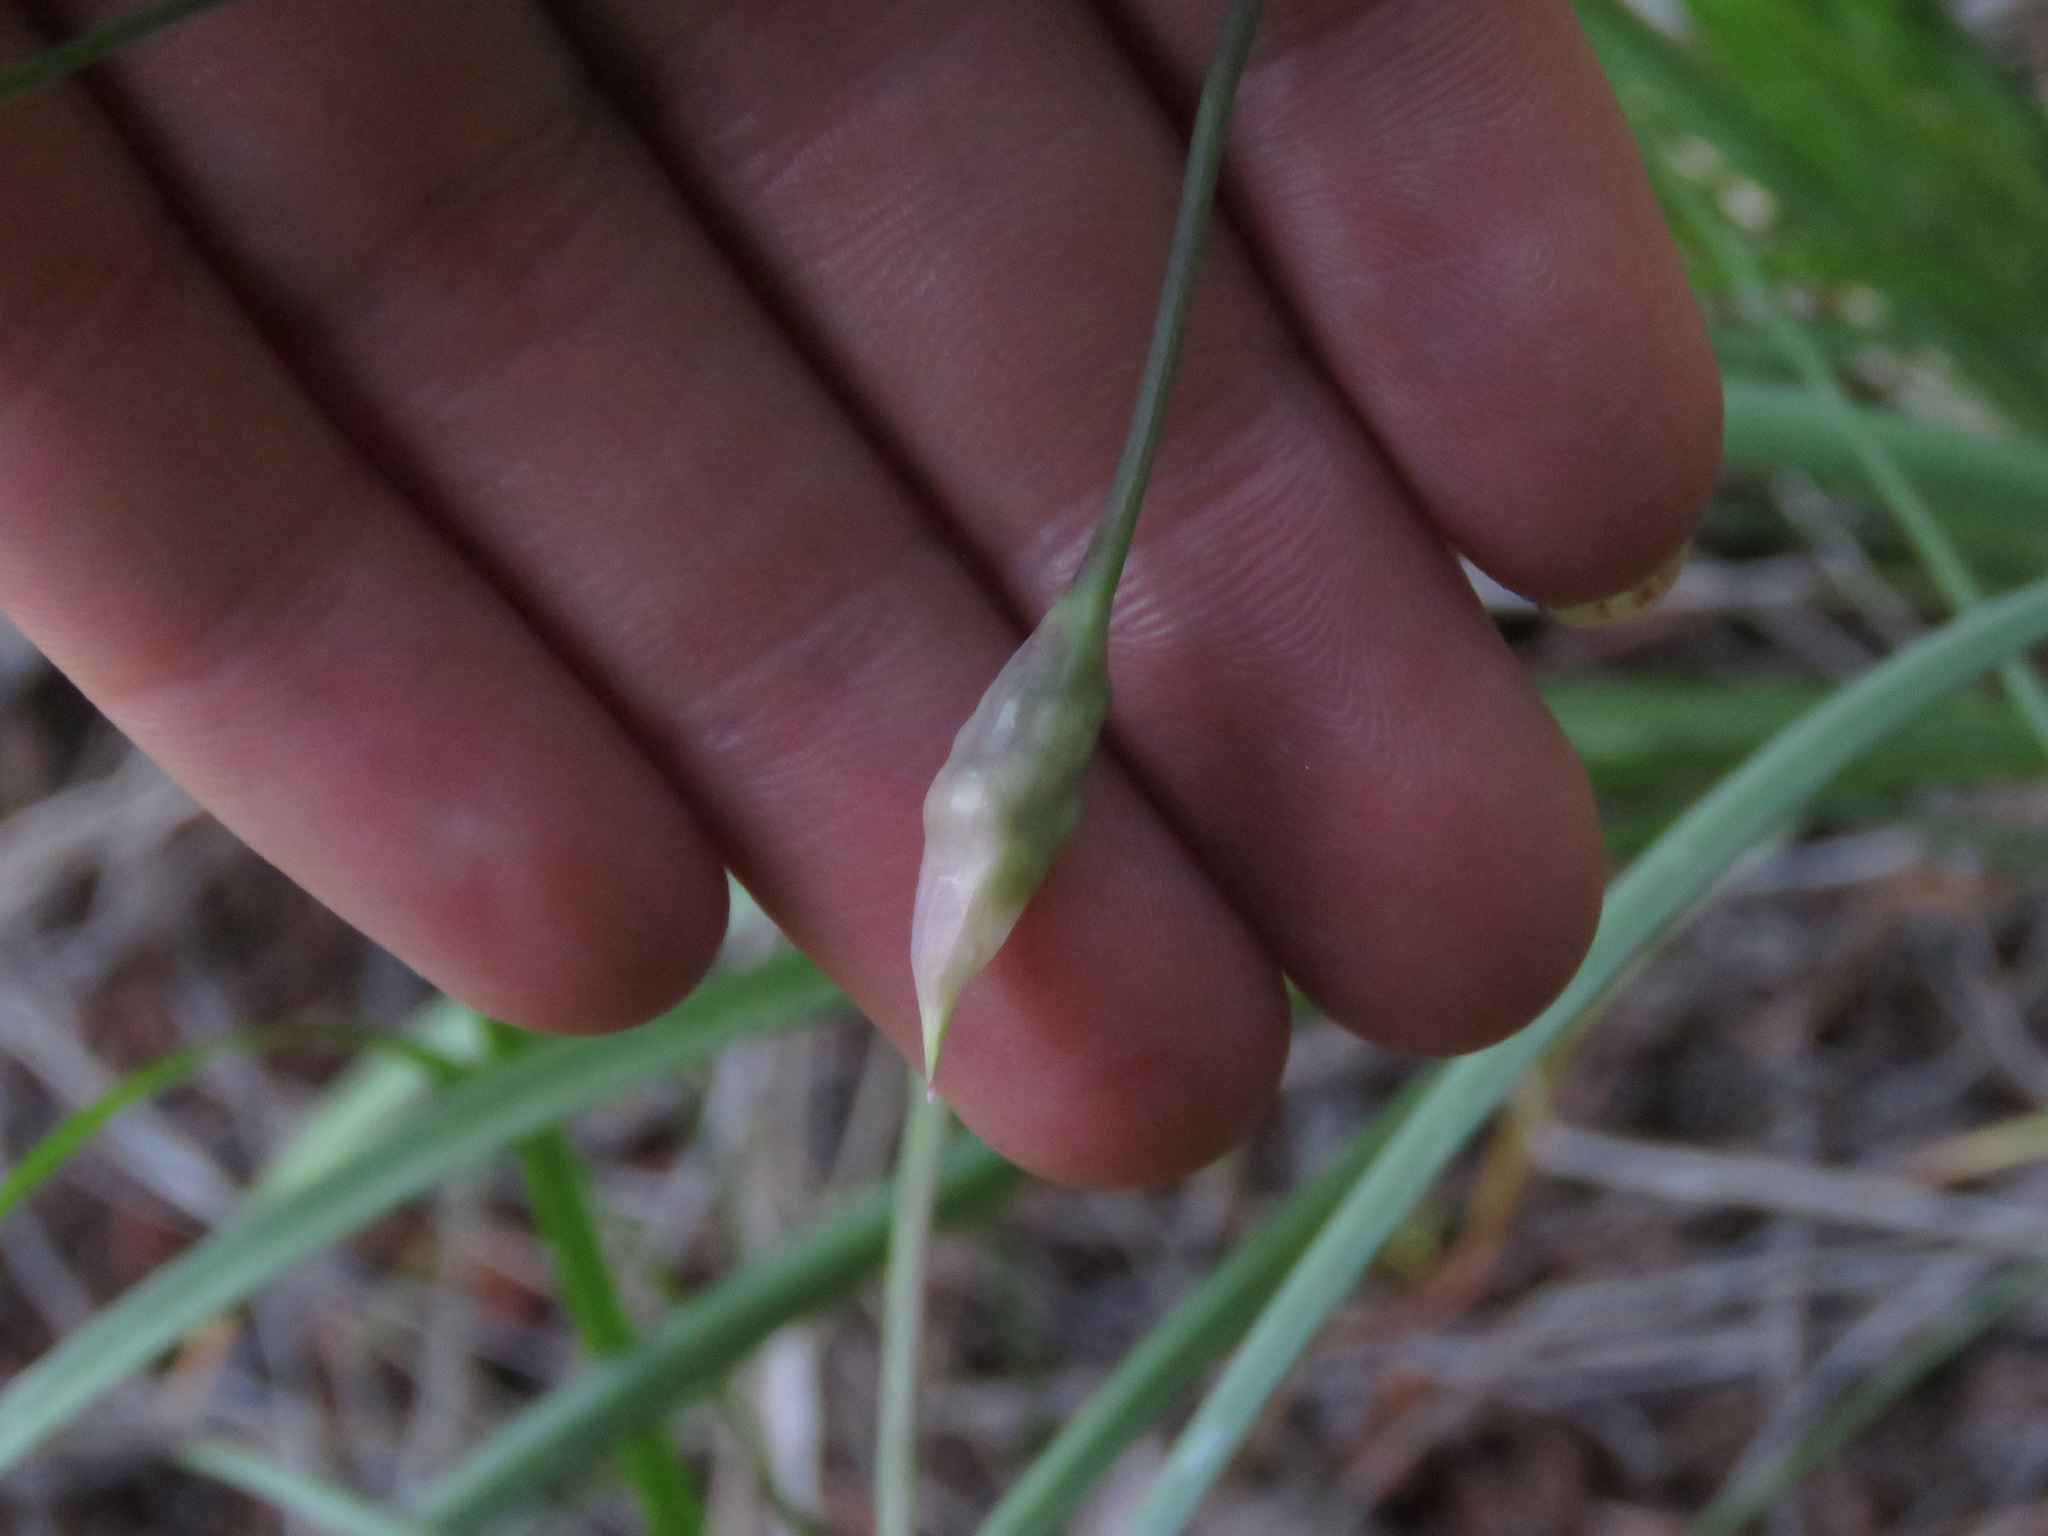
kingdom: Plantae
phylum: Tracheophyta
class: Liliopsida
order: Asparagales
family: Amaryllidaceae
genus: Allium
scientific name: Allium cernuum
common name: Nodding onion
